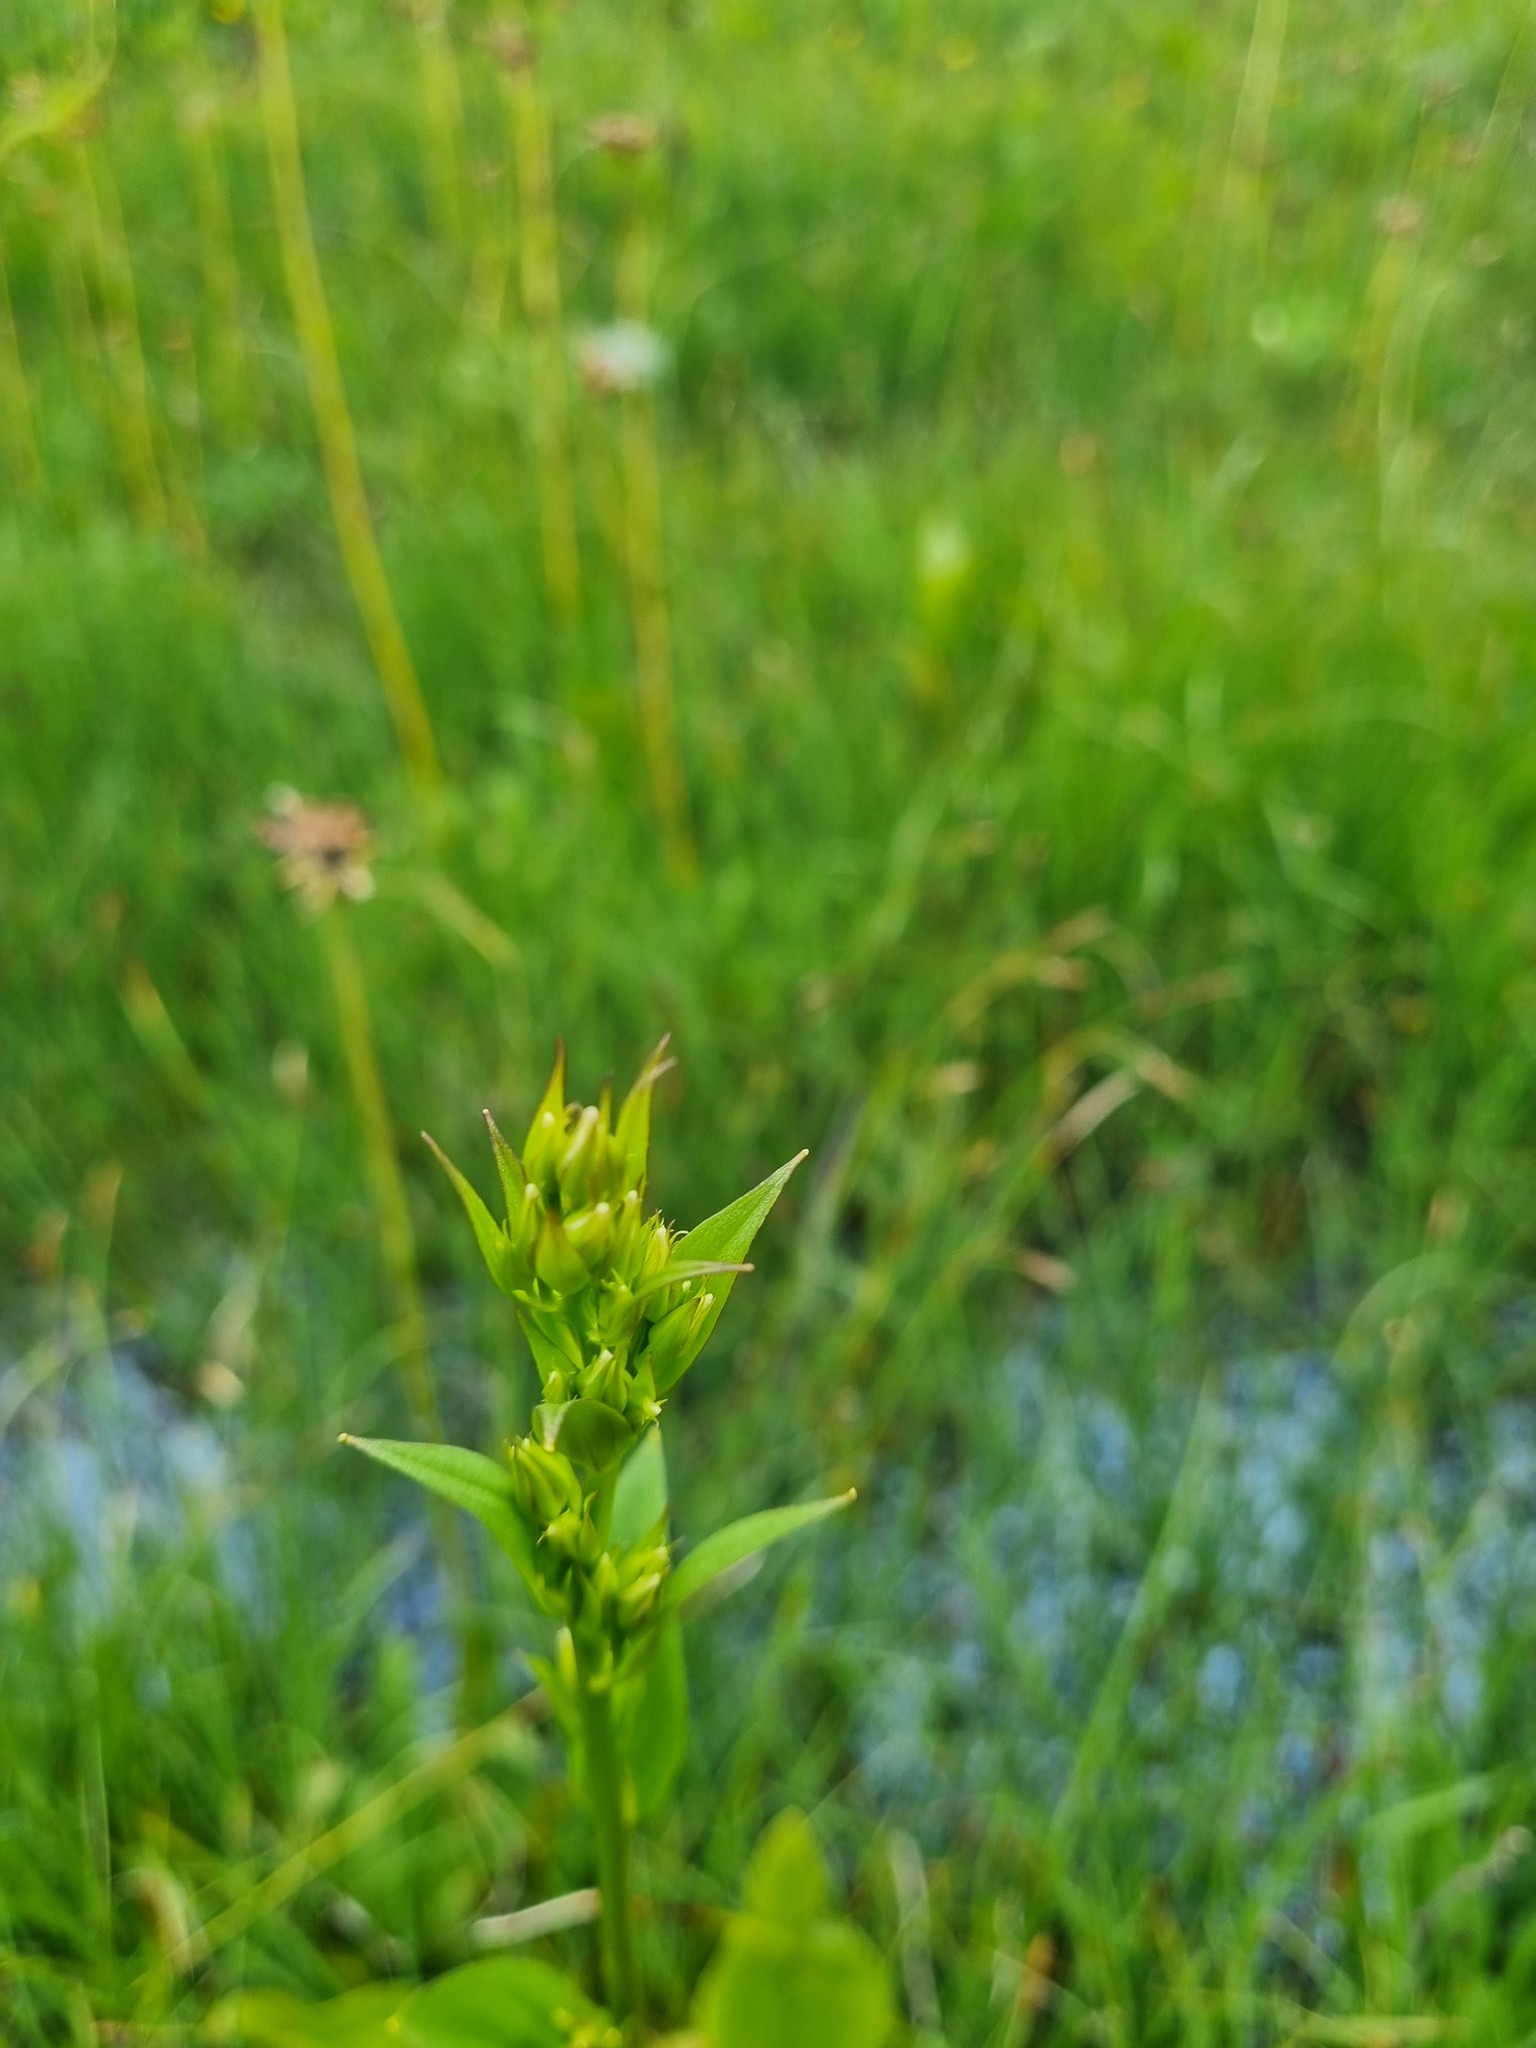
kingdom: Plantae
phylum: Tracheophyta
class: Magnoliopsida
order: Gentianales
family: Gentianaceae
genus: Swertia
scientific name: Swertia iberica
